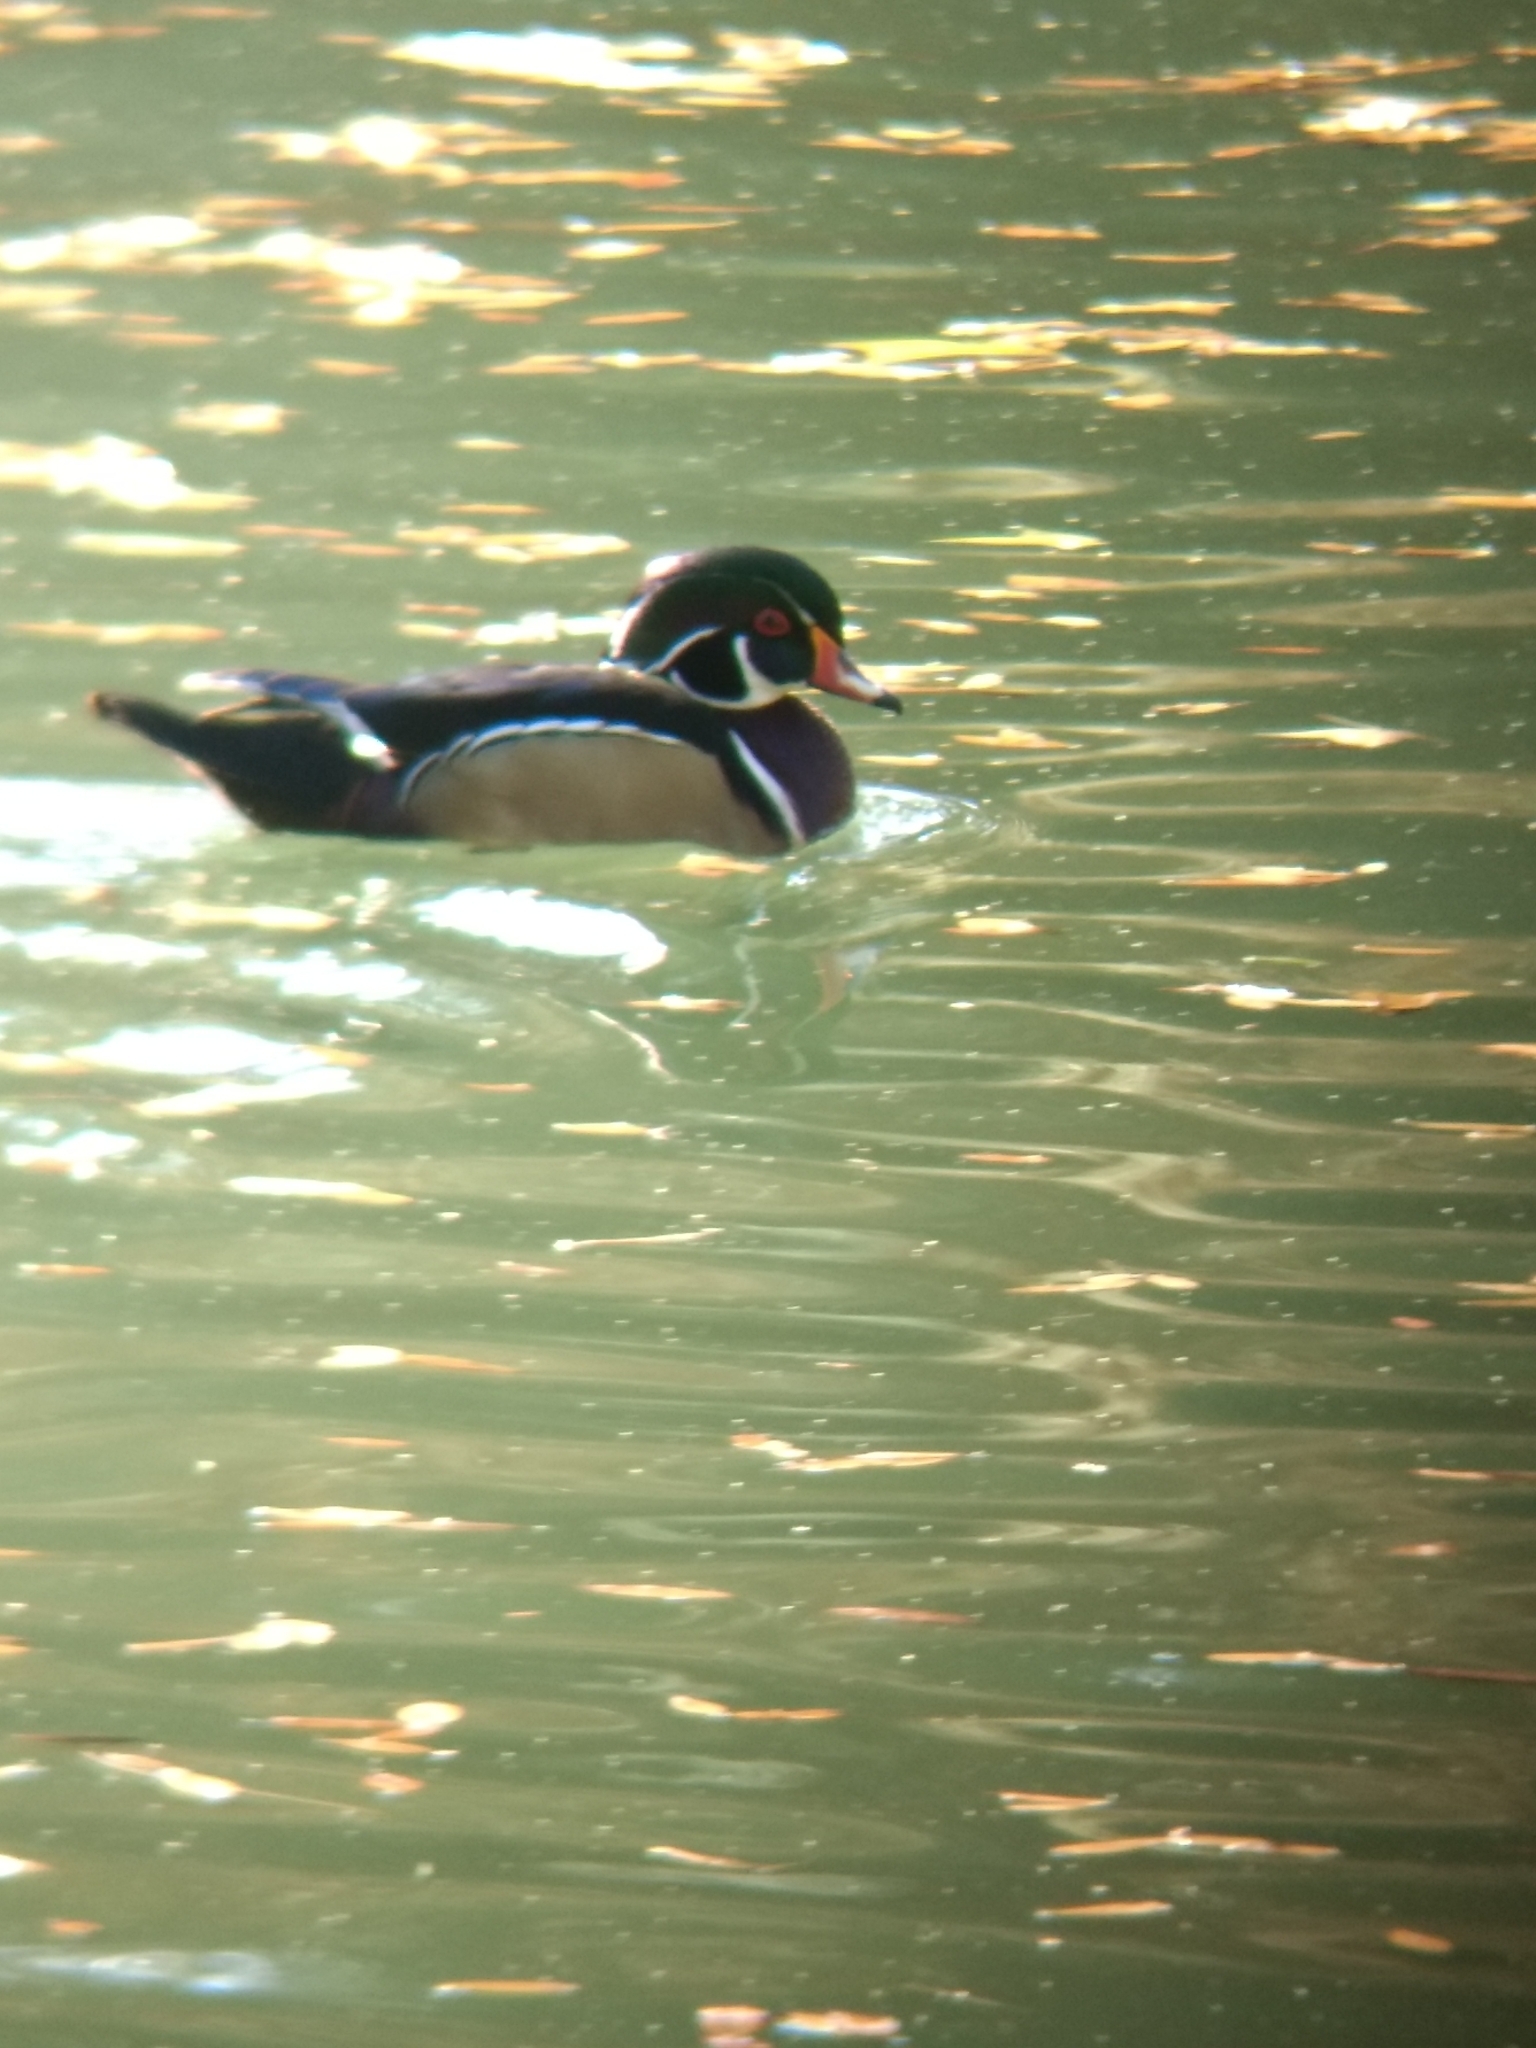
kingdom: Animalia
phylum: Chordata
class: Aves
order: Anseriformes
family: Anatidae
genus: Aix
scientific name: Aix sponsa
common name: Wood duck
